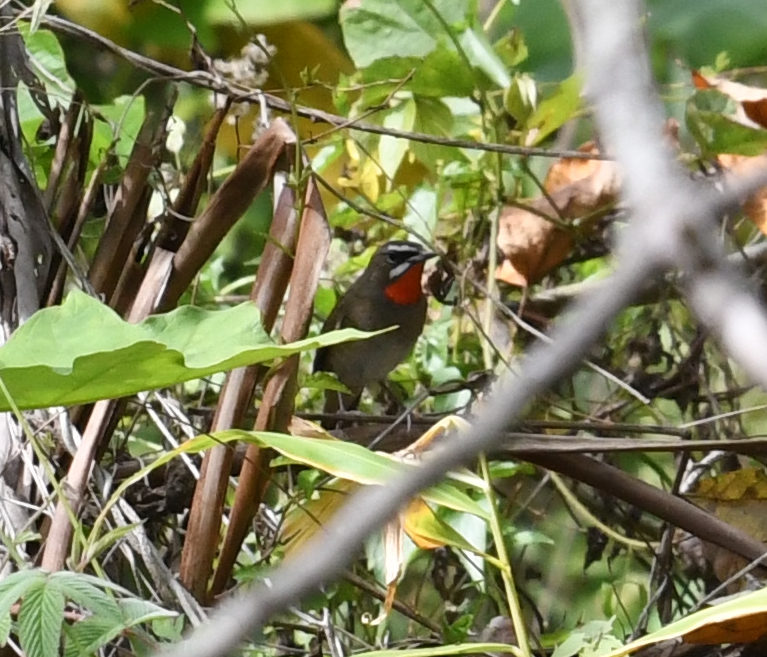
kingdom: Animalia
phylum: Chordata
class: Aves
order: Passeriformes
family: Muscicapidae
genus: Luscinia
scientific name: Luscinia calliope
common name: Siberian rubythroat
